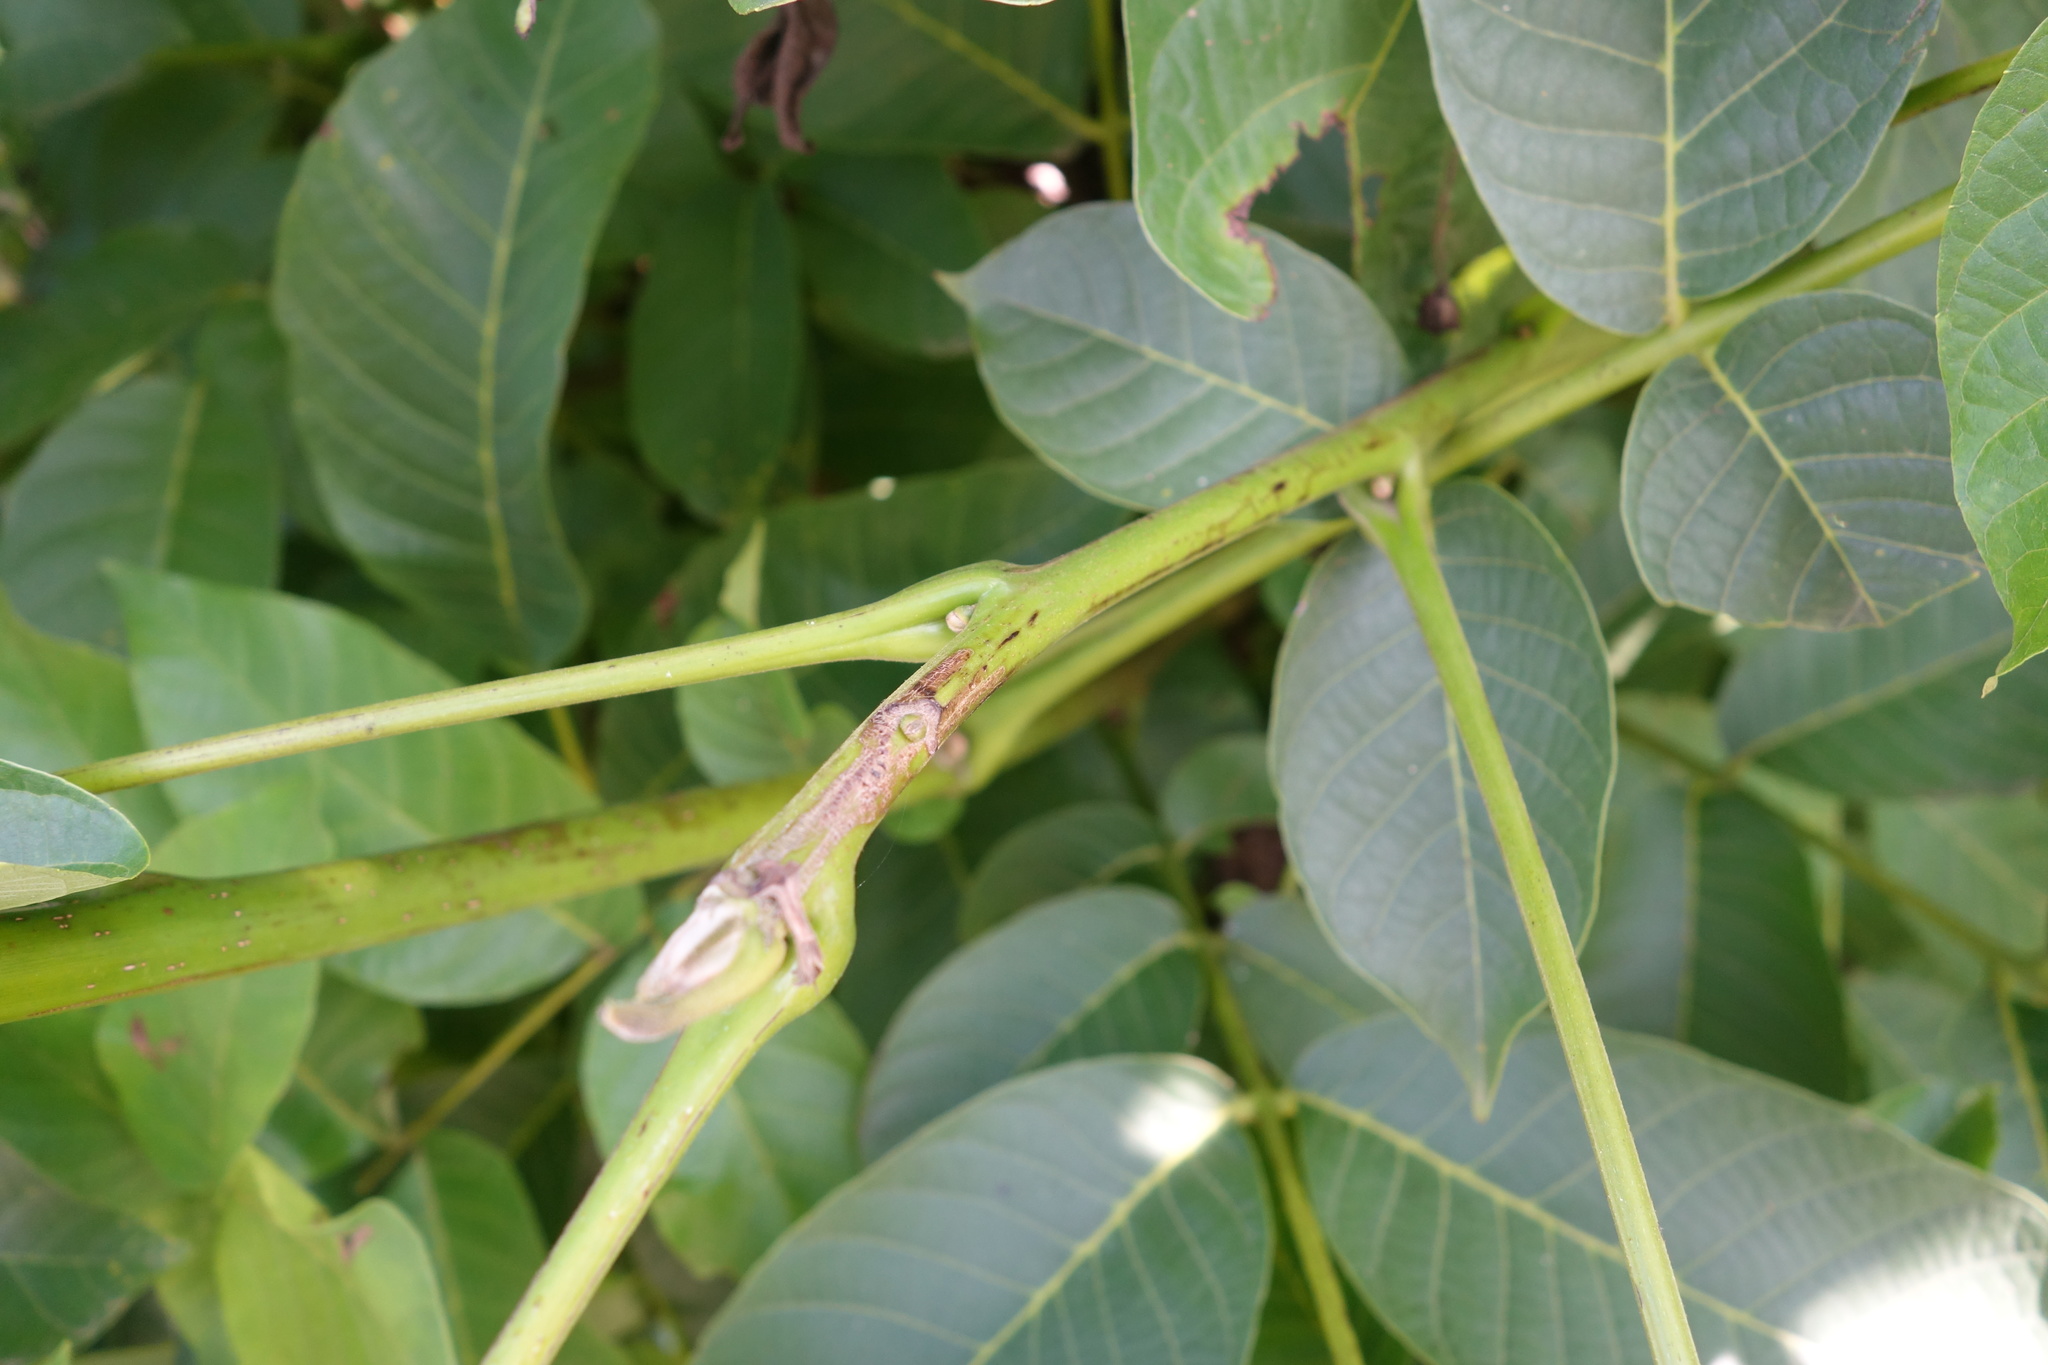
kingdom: Plantae
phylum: Tracheophyta
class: Magnoliopsida
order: Fagales
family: Juglandaceae
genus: Juglans
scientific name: Juglans regia
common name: Walnut
